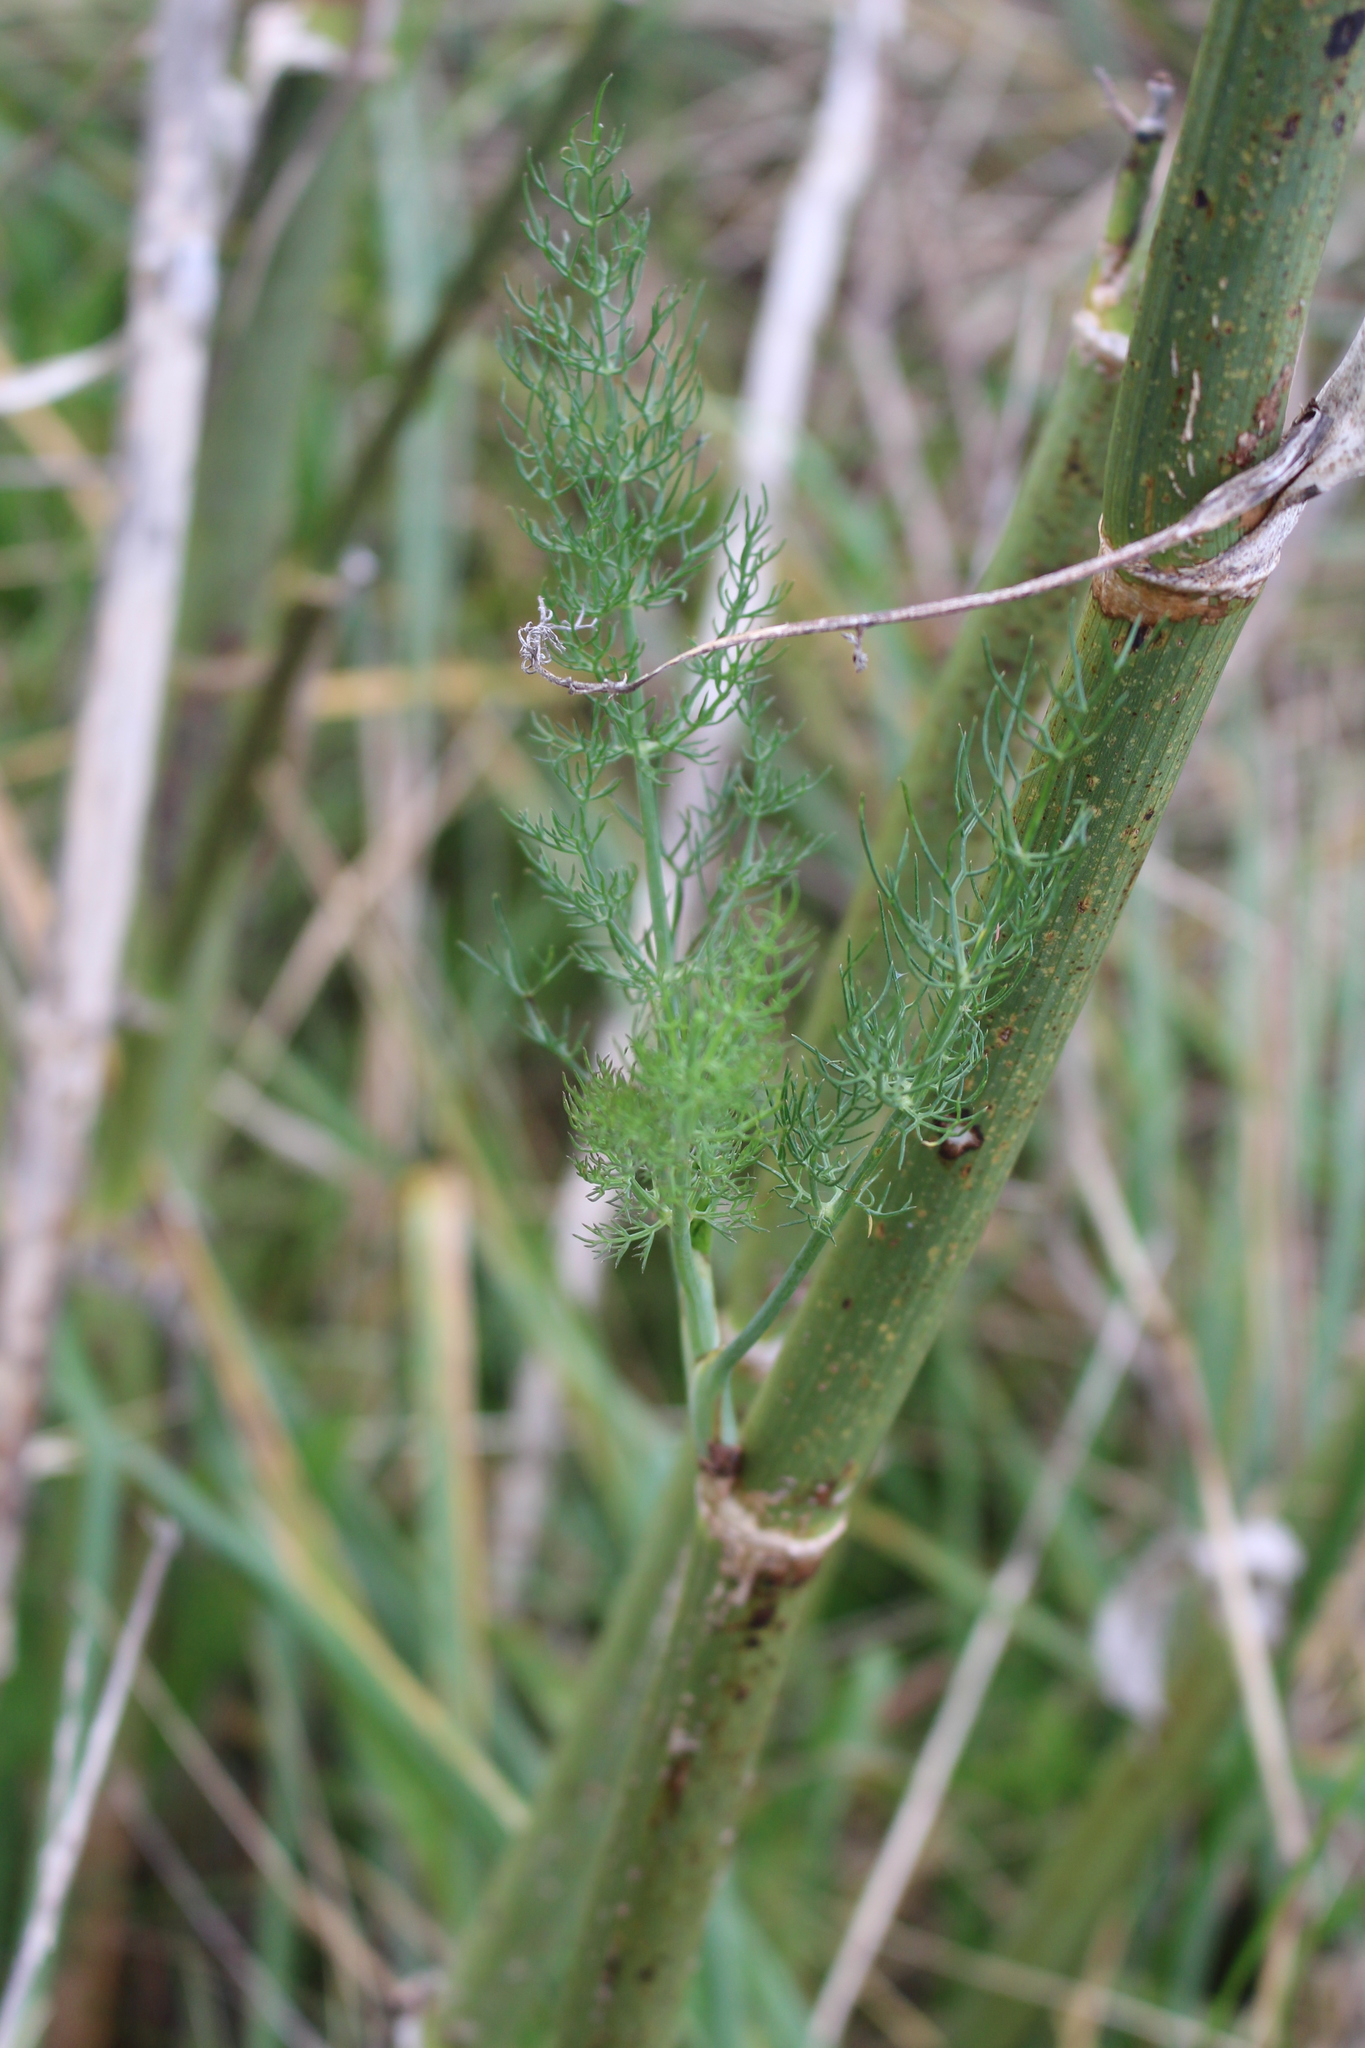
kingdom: Plantae
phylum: Tracheophyta
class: Magnoliopsida
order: Apiales
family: Apiaceae
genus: Foeniculum
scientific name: Foeniculum vulgare
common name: Fennel
